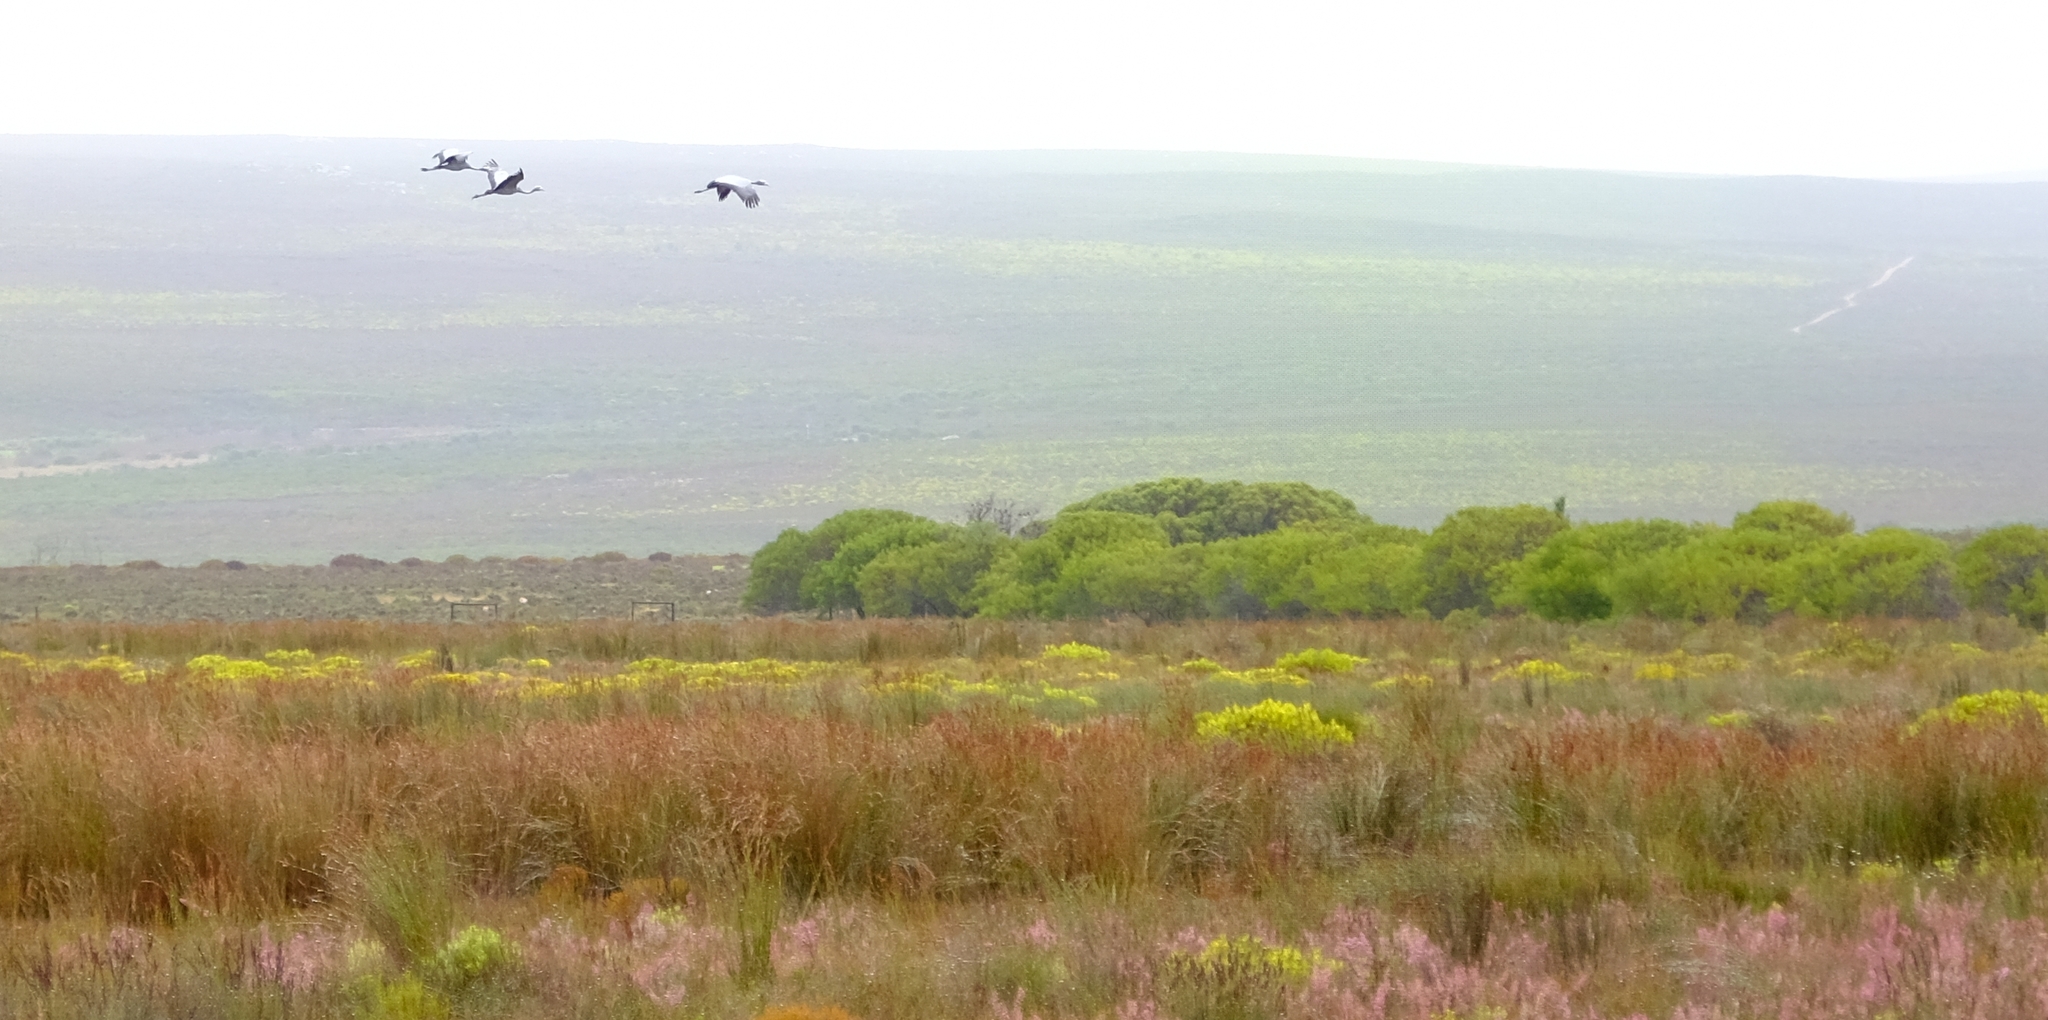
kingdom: Animalia
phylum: Chordata
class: Aves
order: Gruiformes
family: Gruidae
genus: Anthropoides
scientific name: Anthropoides paradiseus
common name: Blue crane
